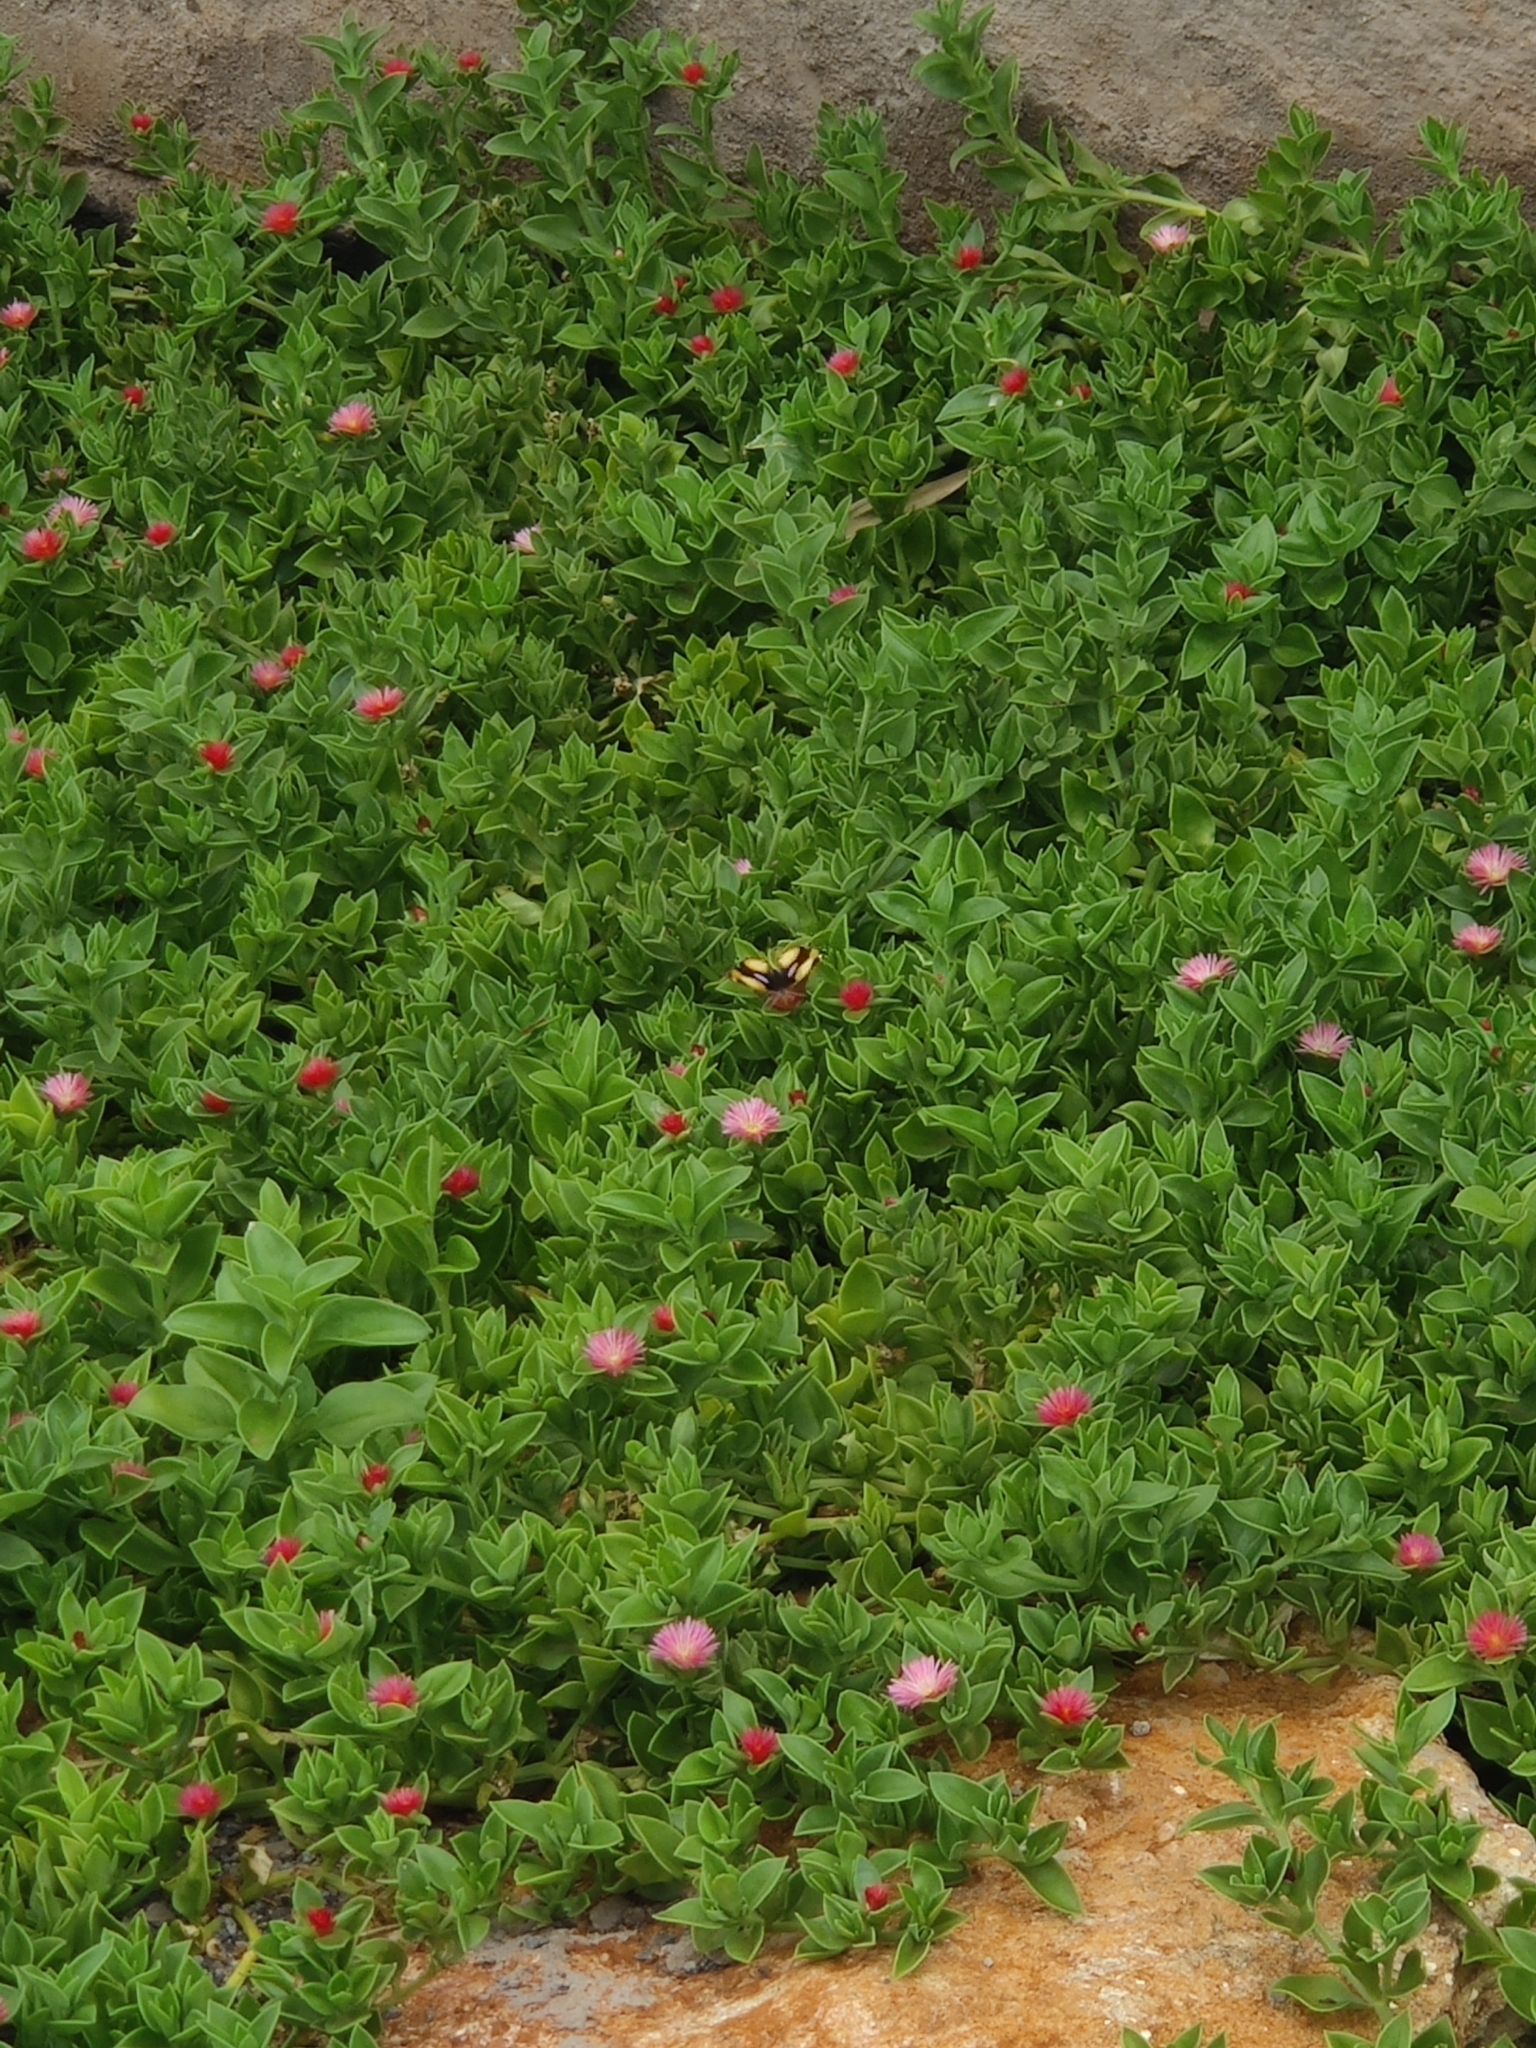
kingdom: Animalia
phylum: Arthropoda
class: Insecta
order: Lepidoptera
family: Nymphalidae
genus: Junonia
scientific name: Junonia hierta
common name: Yellow pansy
